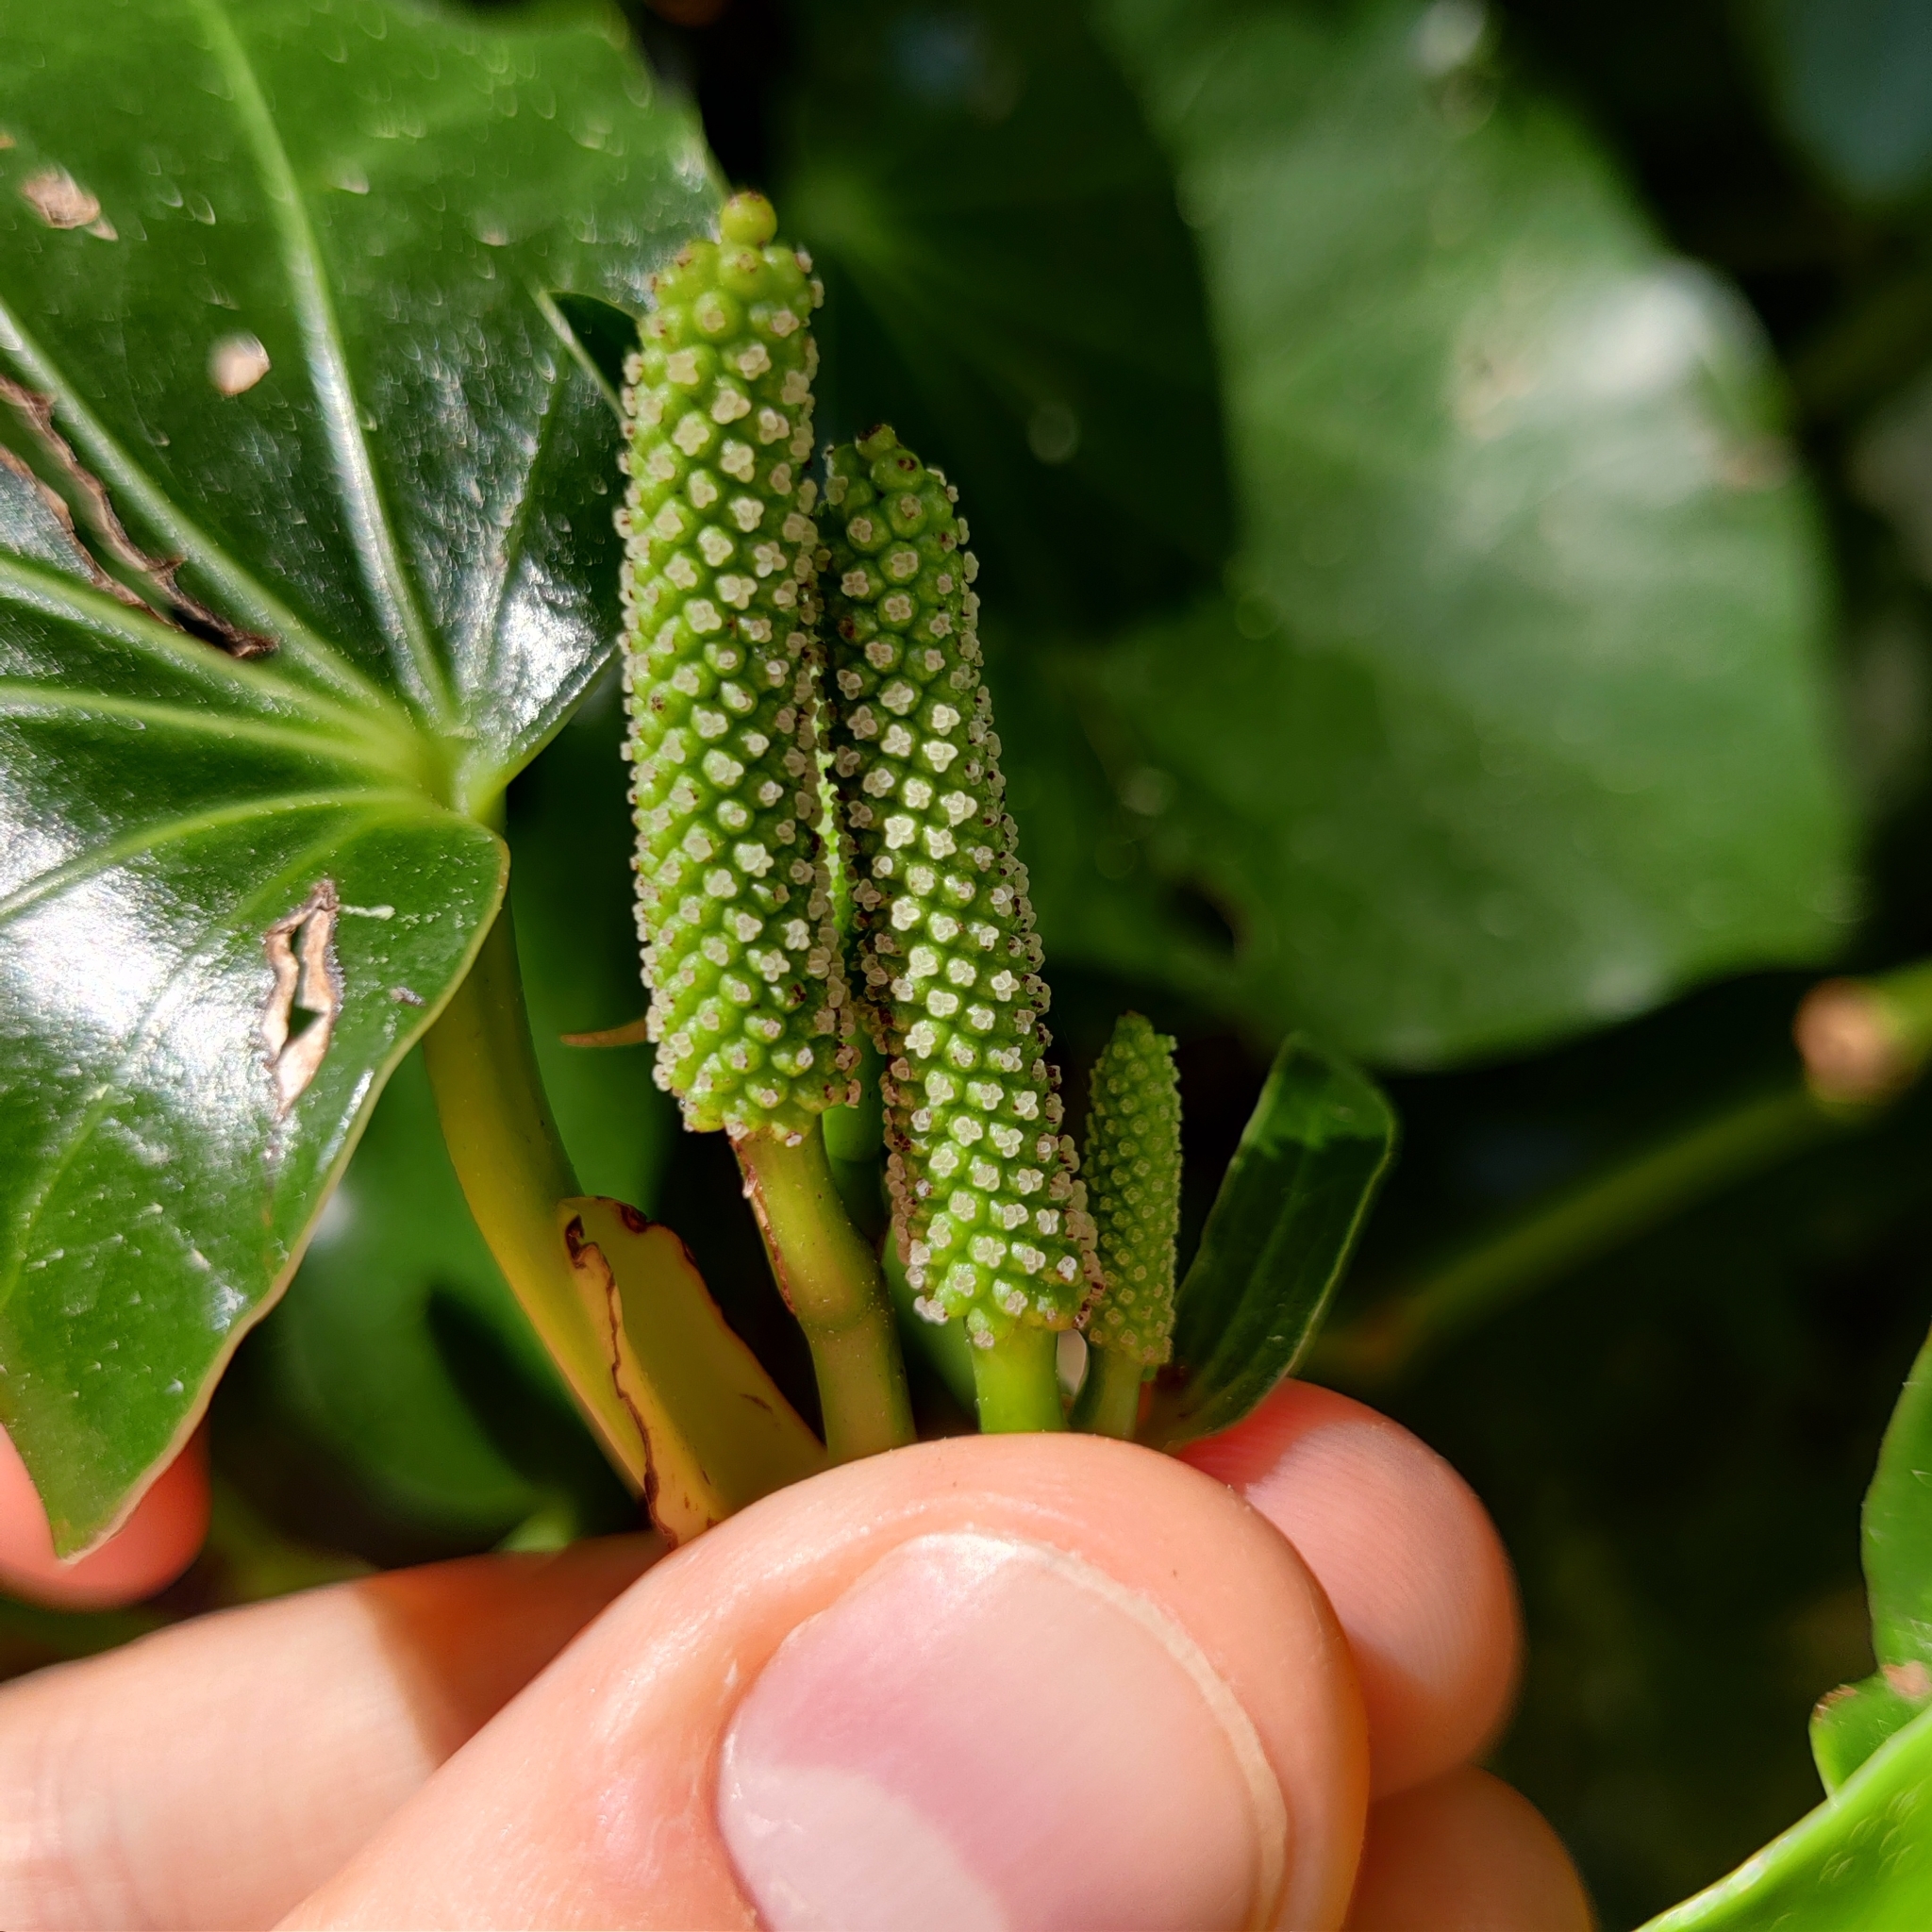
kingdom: Plantae
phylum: Tracheophyta
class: Magnoliopsida
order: Piperales
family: Piperaceae
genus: Macropiper
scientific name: Macropiper excelsum
